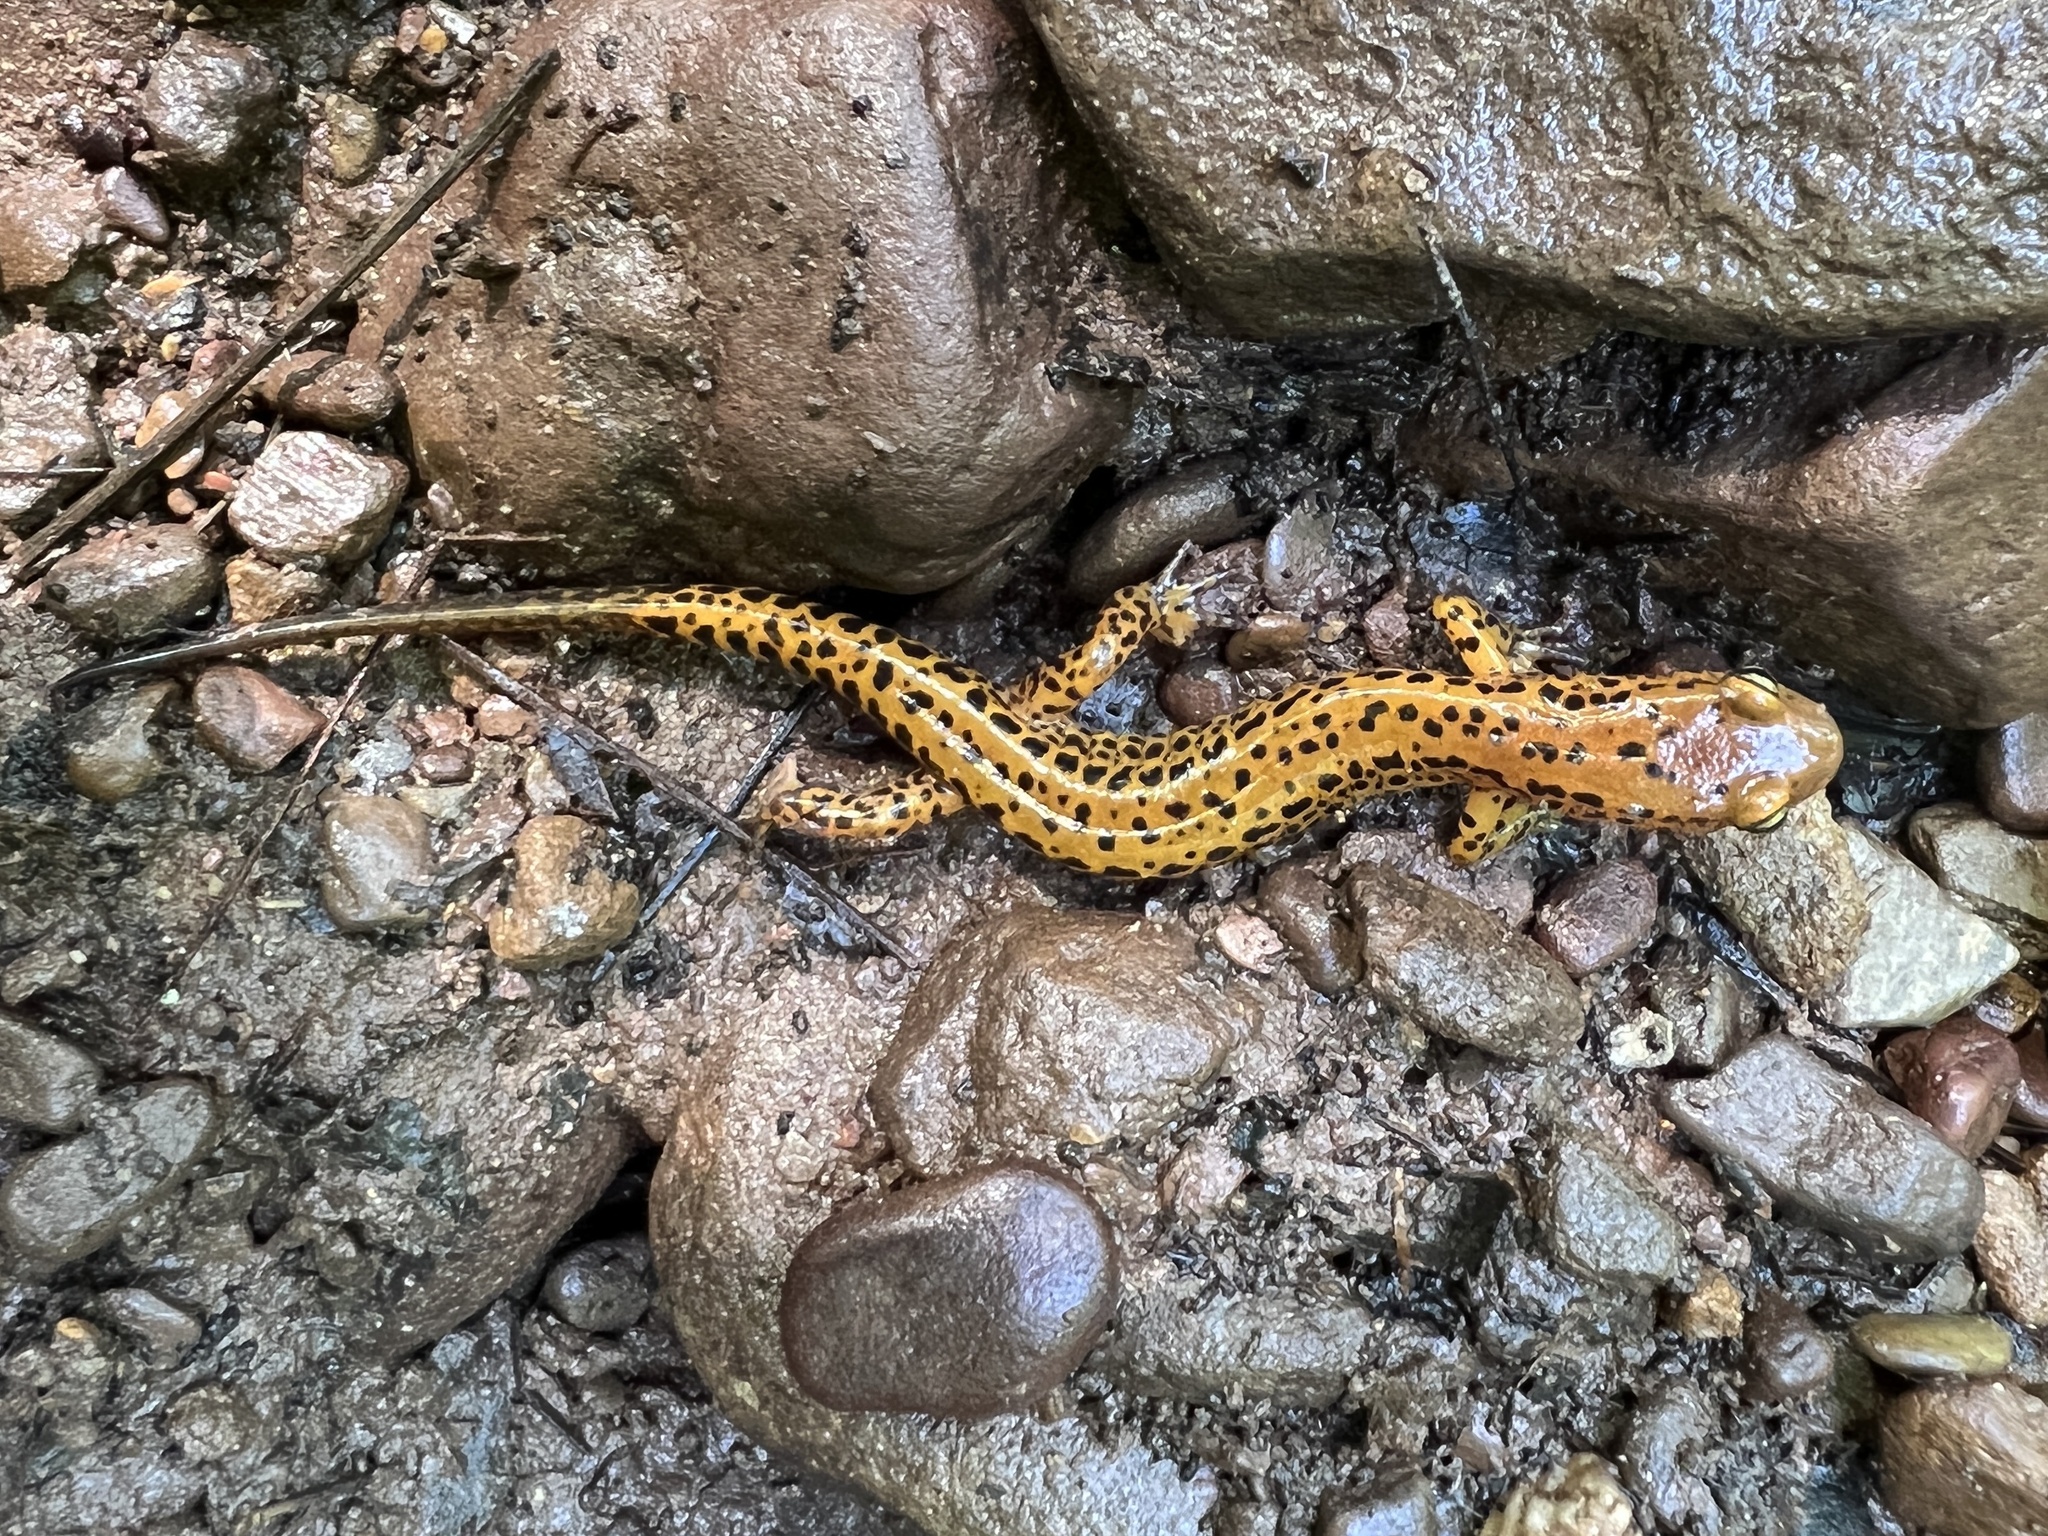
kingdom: Animalia
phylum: Chordata
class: Amphibia
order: Caudata
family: Plethodontidae
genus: Eurycea
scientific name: Eurycea longicauda
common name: Long-tailed salamander
